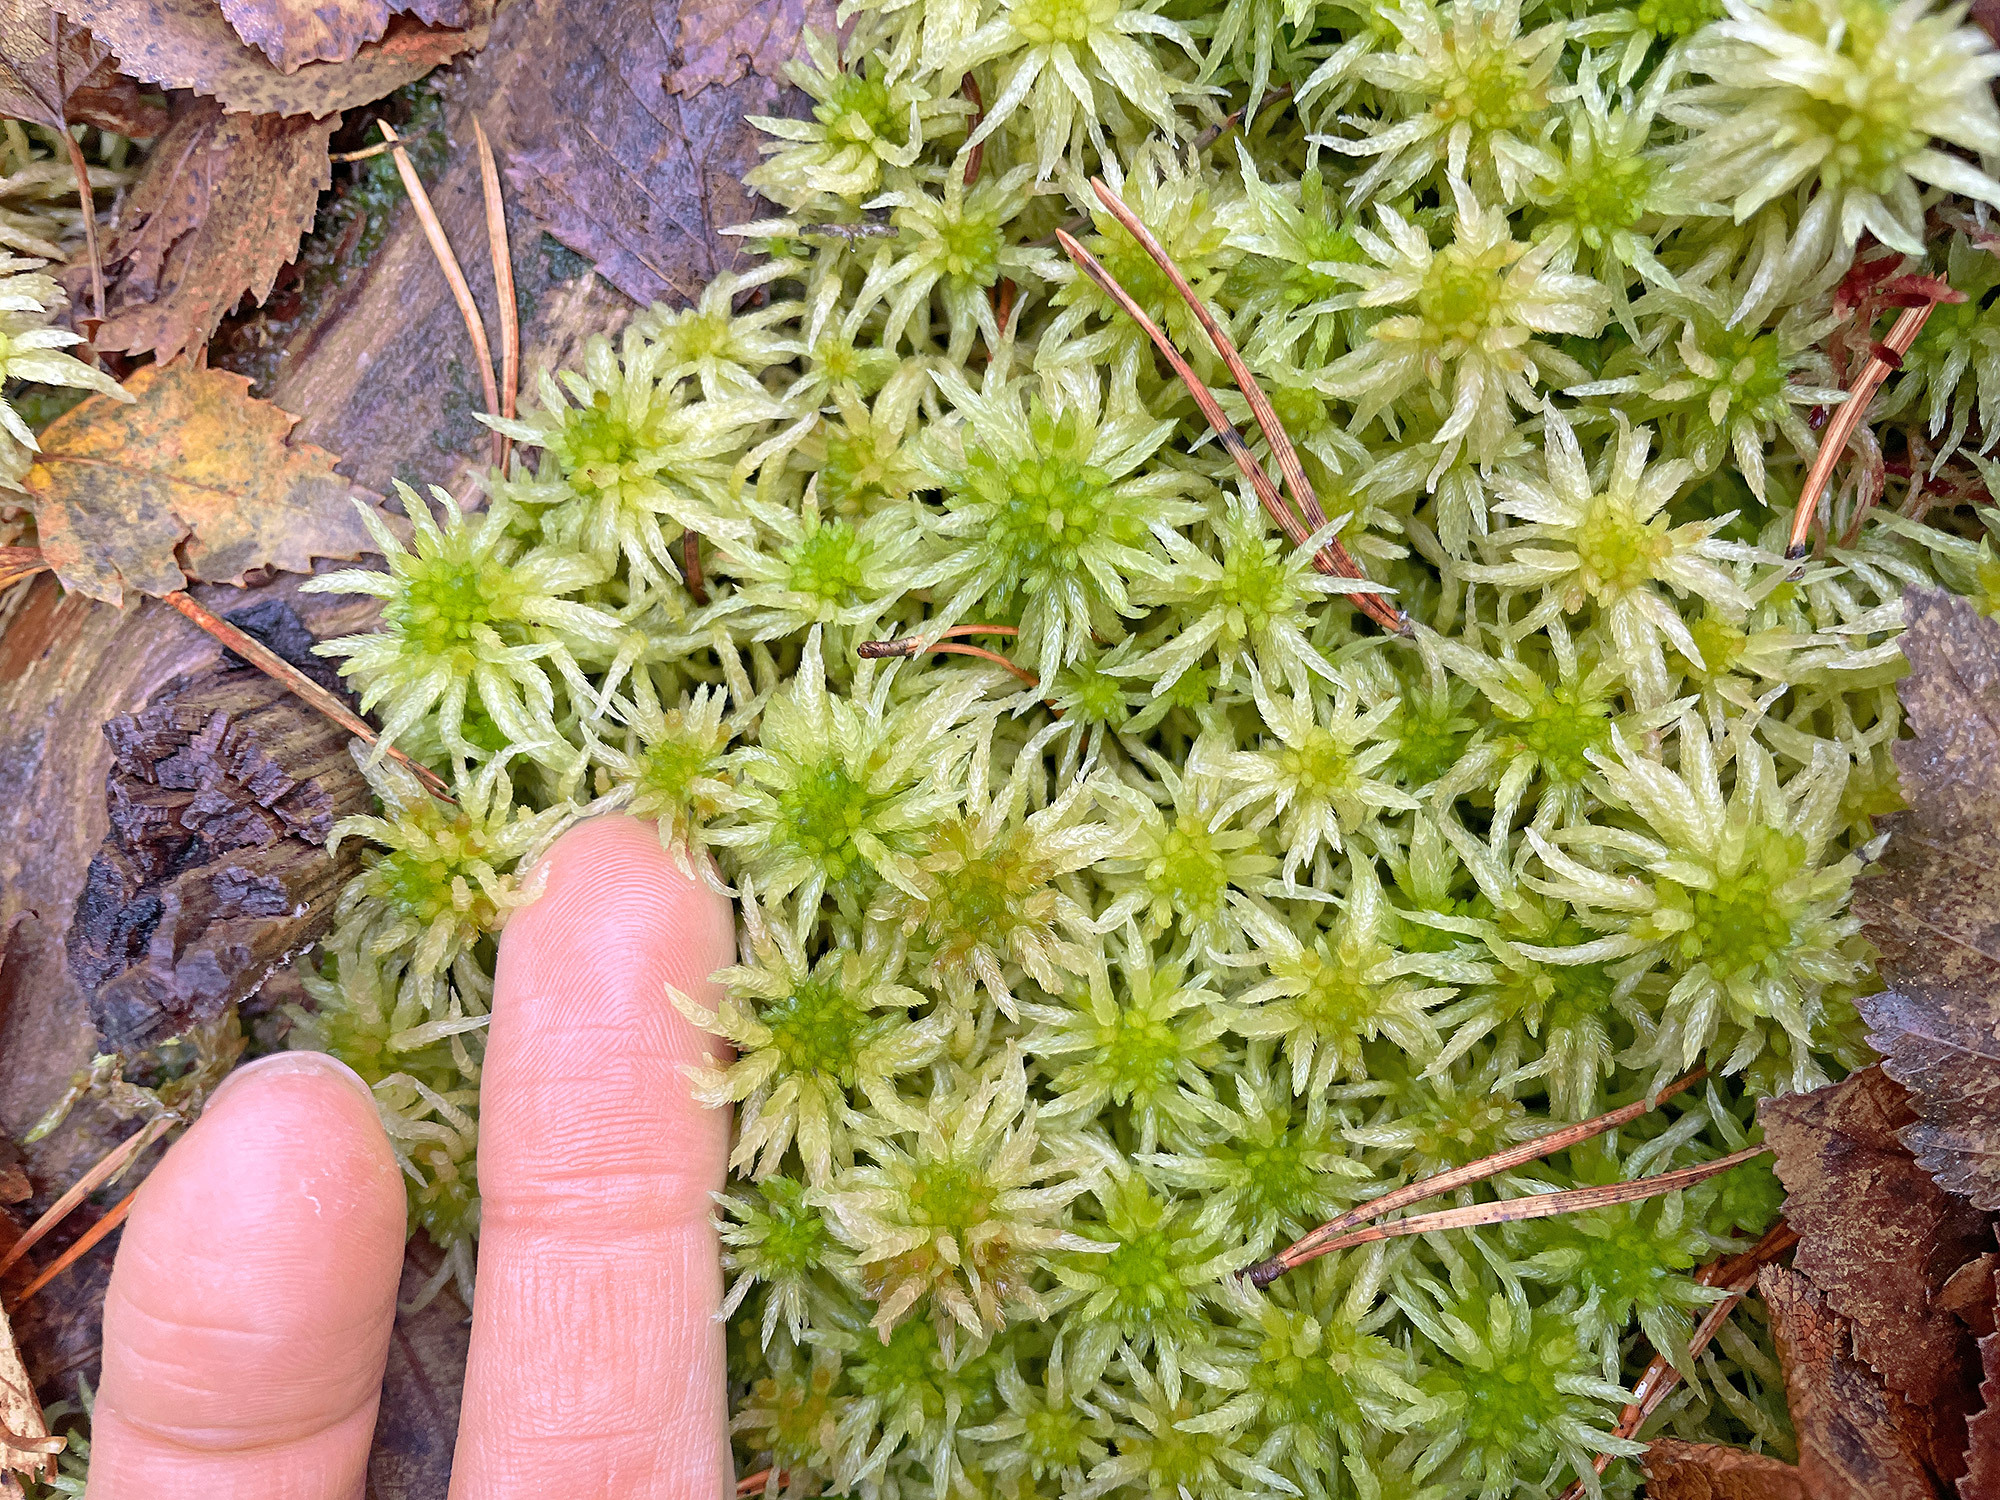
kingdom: Plantae
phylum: Bryophyta
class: Sphagnopsida
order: Sphagnales
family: Sphagnaceae
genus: Sphagnum
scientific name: Sphagnum riparium
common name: Streamside peat moss
